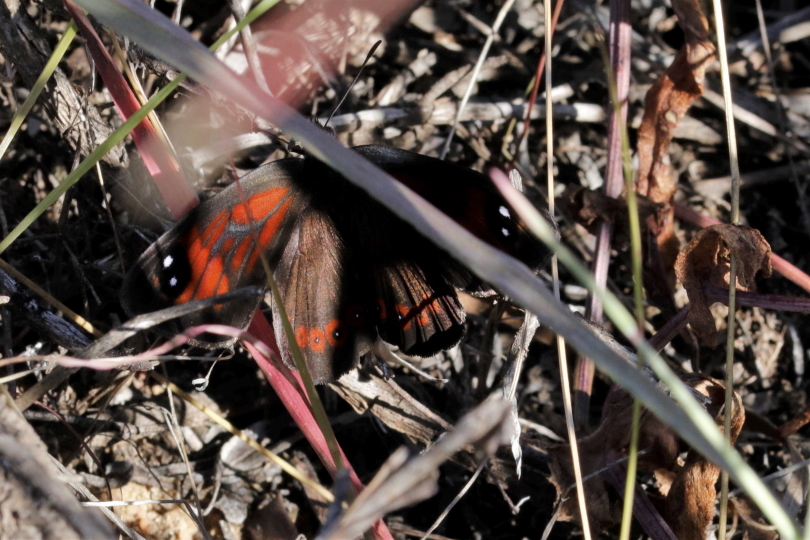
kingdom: Animalia
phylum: Arthropoda
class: Insecta
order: Lepidoptera
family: Nymphalidae
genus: Tarsocera
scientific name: Tarsocera
